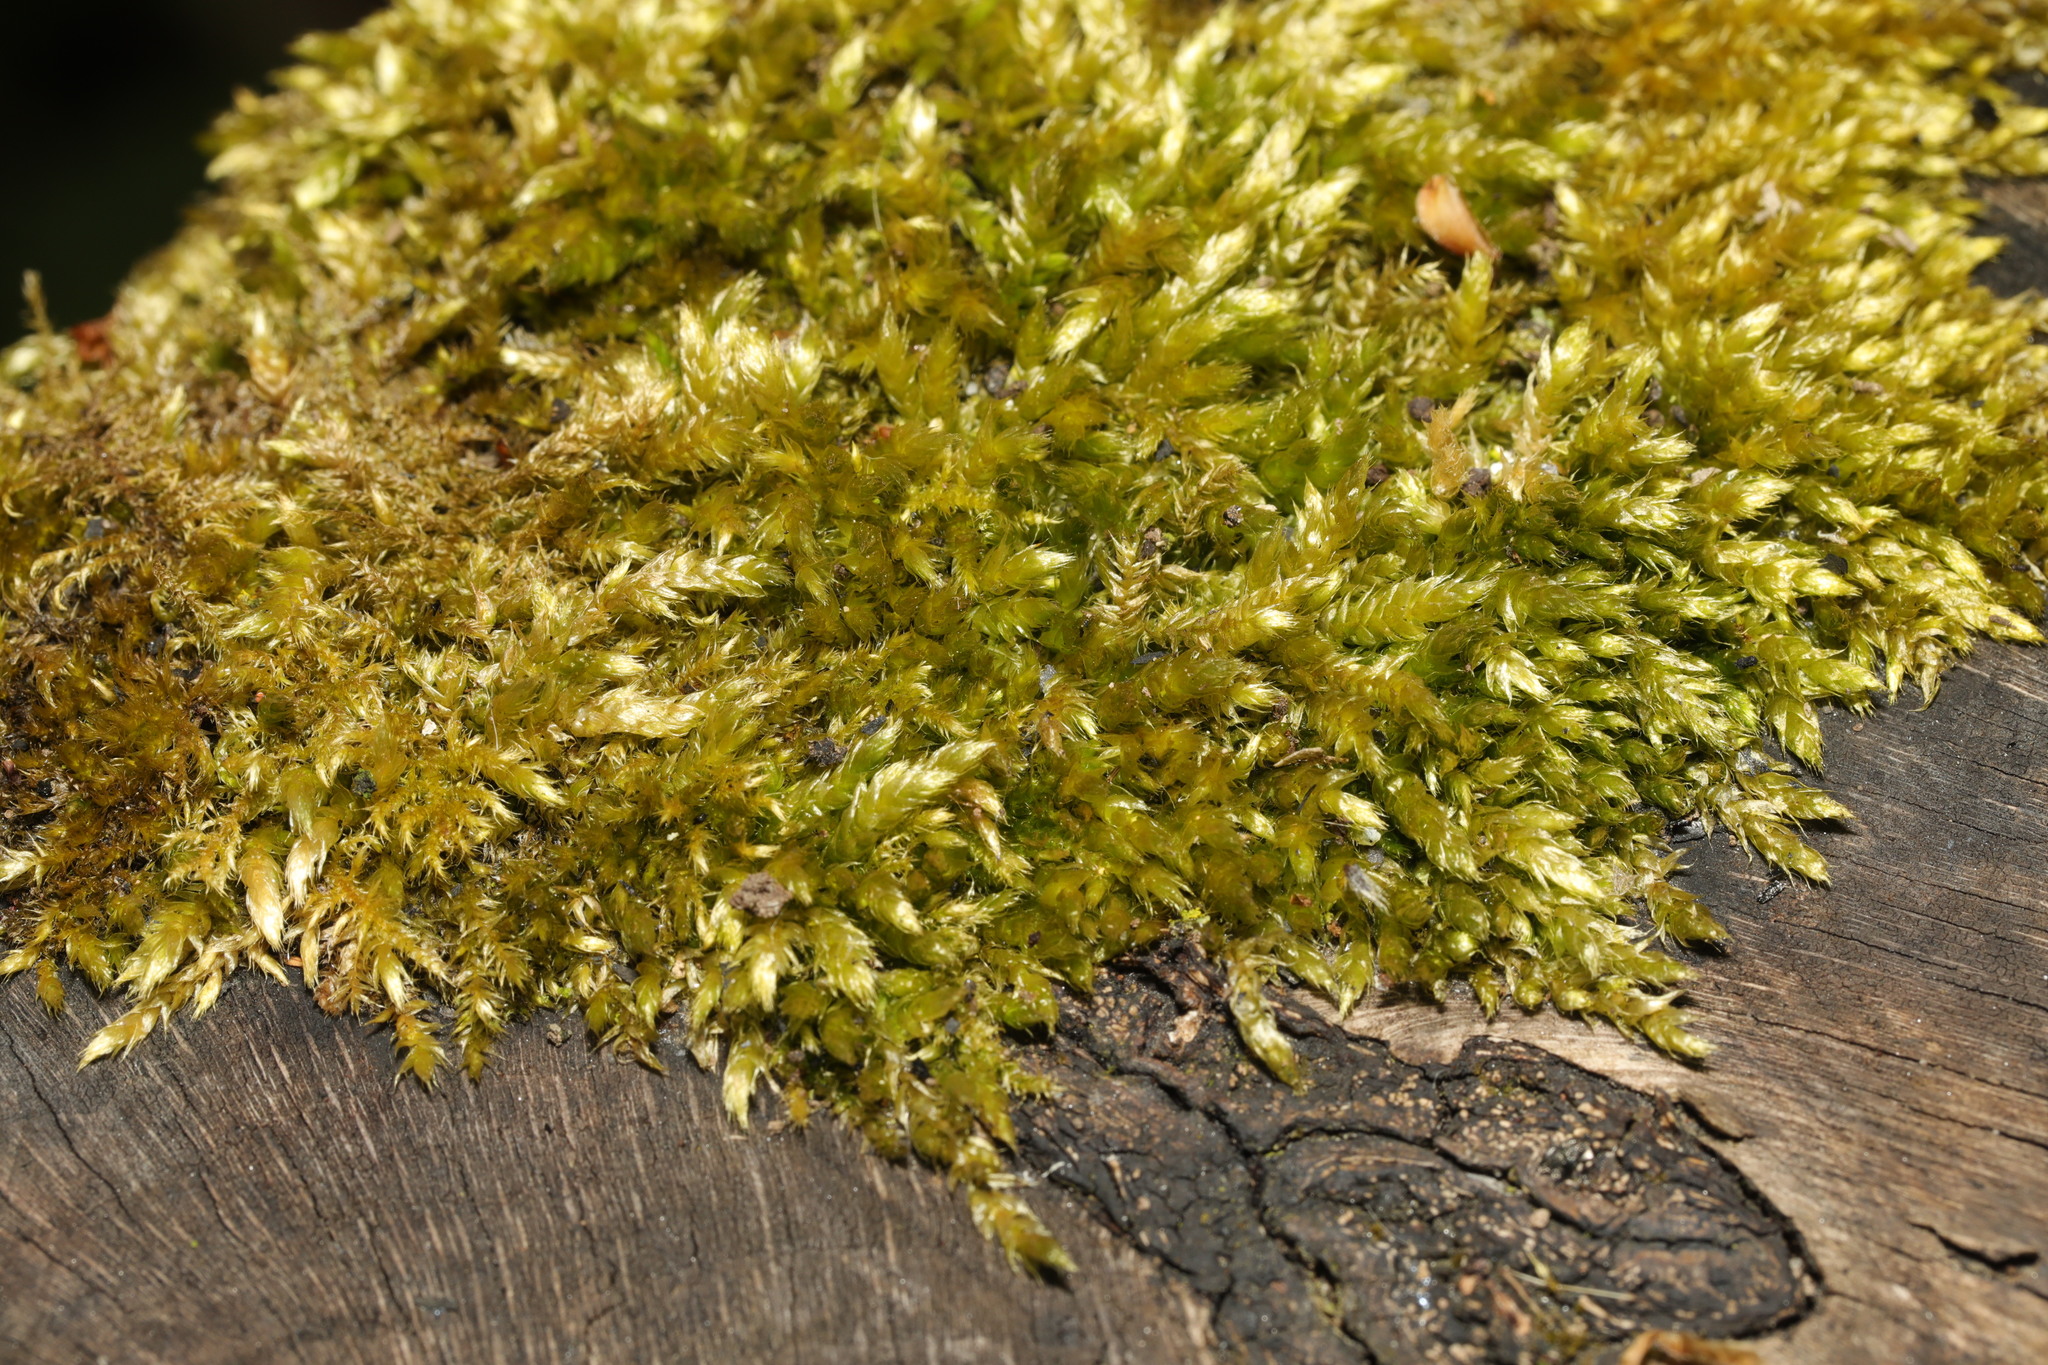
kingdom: Plantae
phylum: Bryophyta
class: Bryopsida
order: Hypnales
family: Brachytheciaceae
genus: Brachythecium
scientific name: Brachythecium rutabulum
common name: Rough-stalked feather-moss
